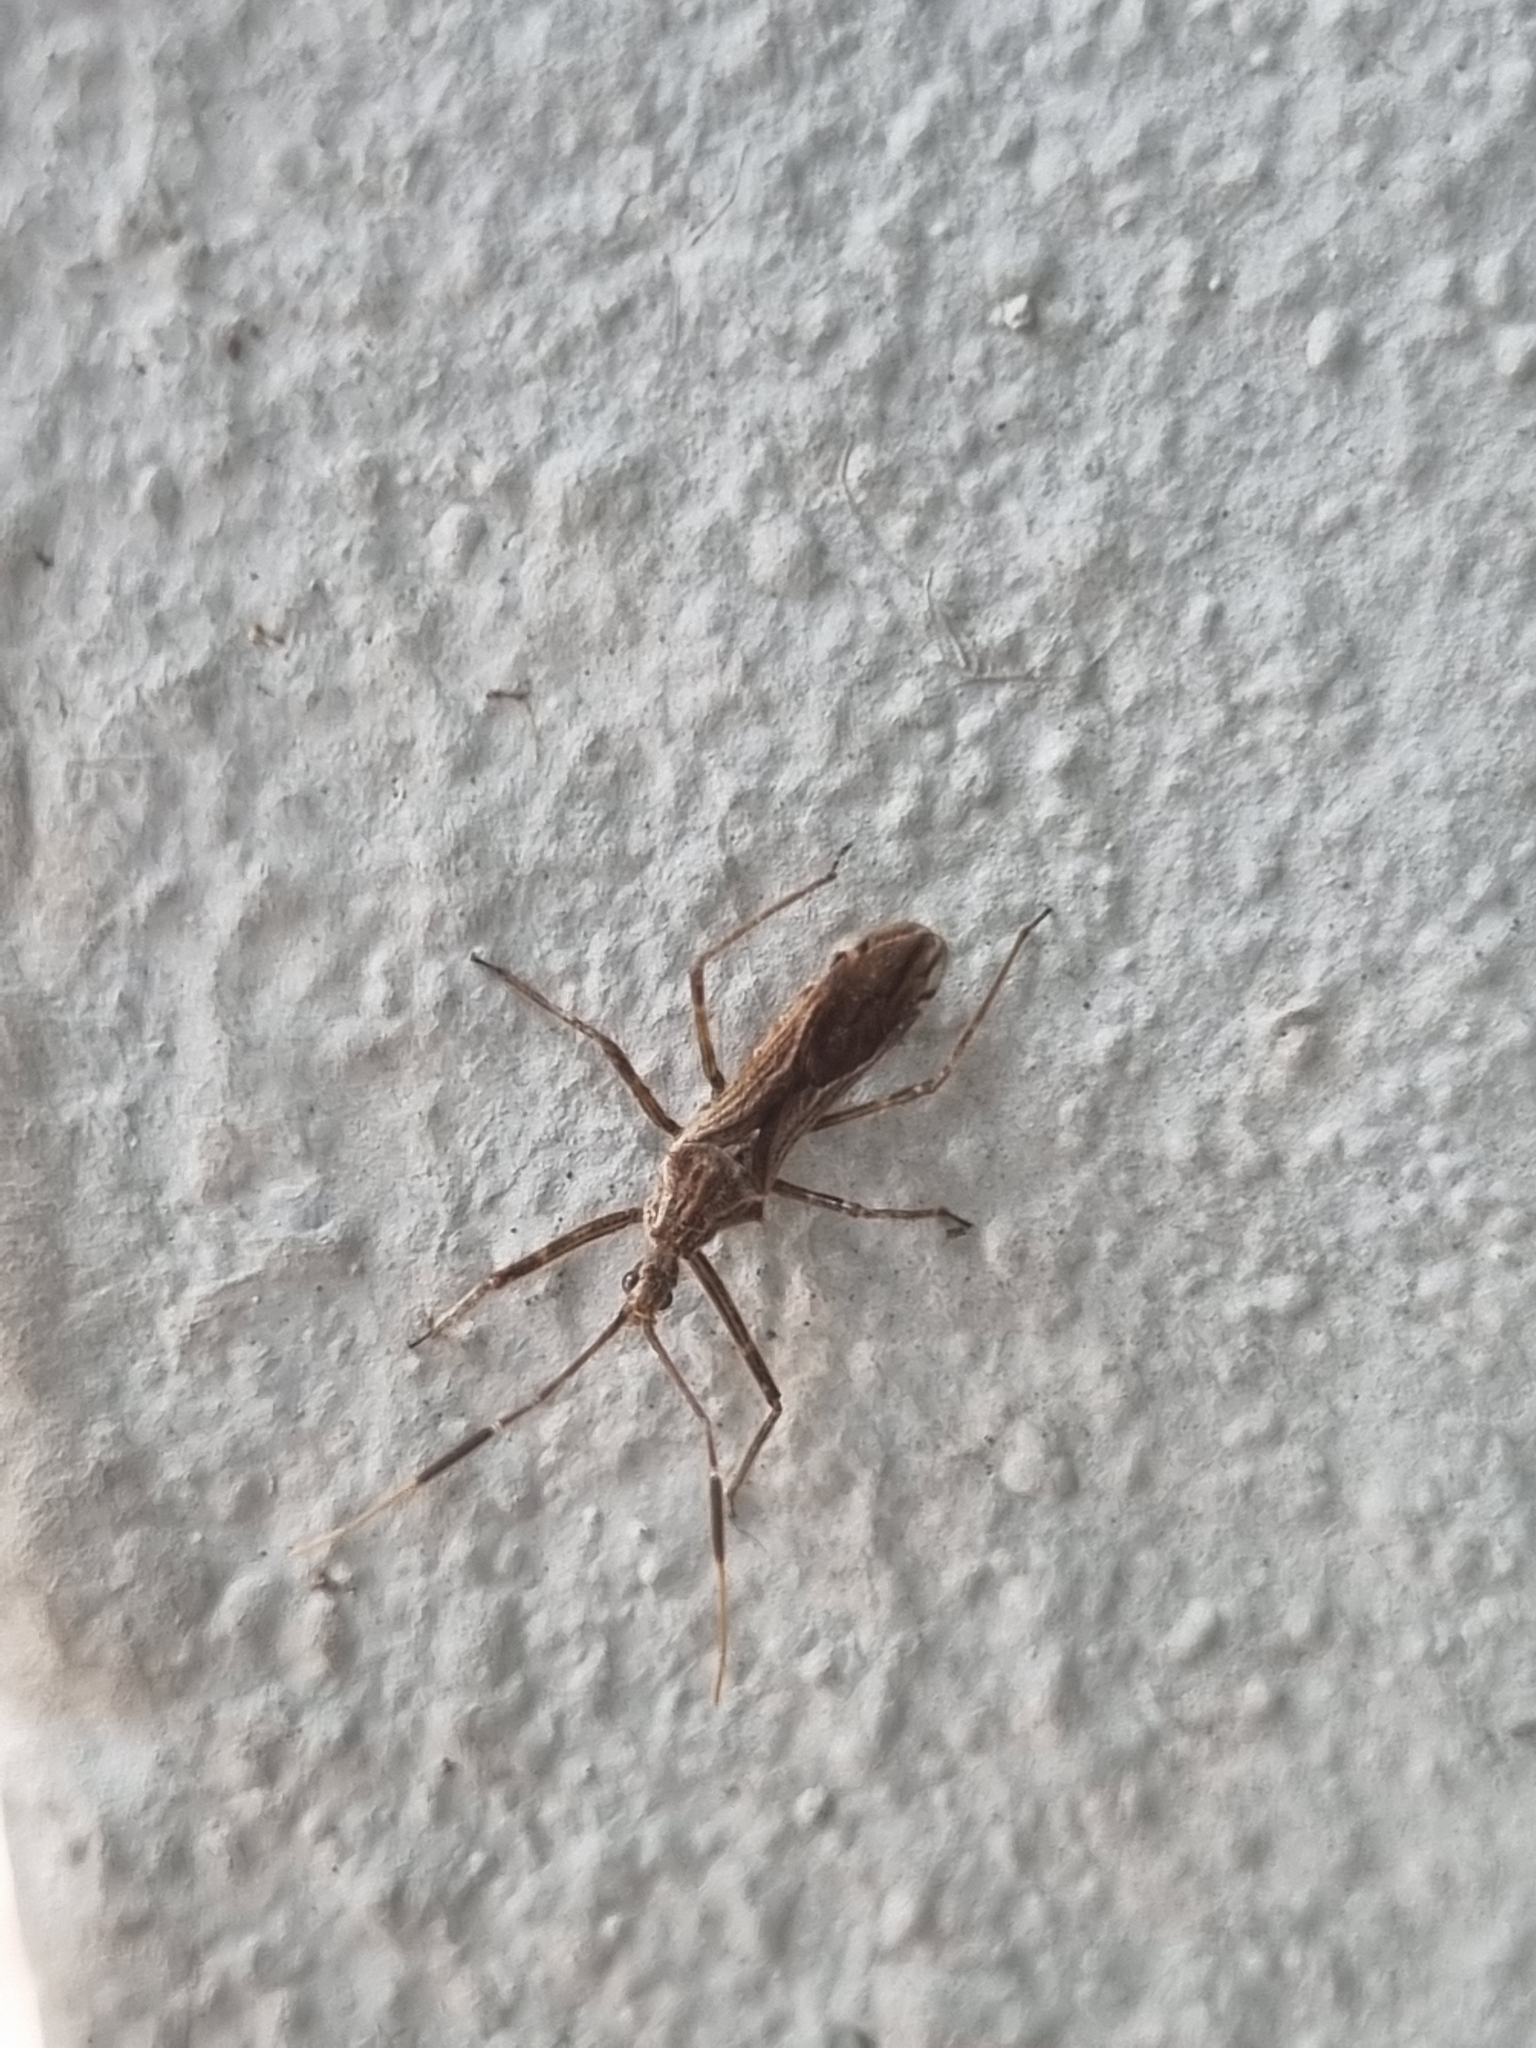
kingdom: Animalia
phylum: Arthropoda
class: Insecta
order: Hemiptera
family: Reduviidae
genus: Atrachelus
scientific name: Atrachelus cinereus
